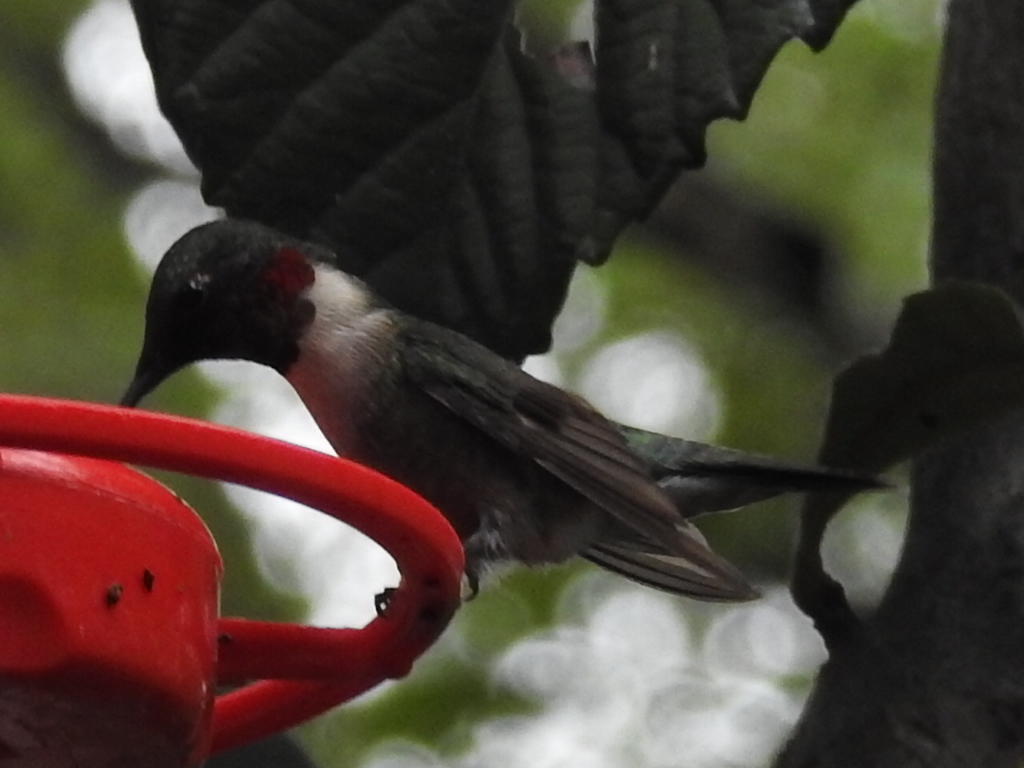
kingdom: Animalia
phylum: Chordata
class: Aves
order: Apodiformes
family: Trochilidae
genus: Archilochus
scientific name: Archilochus colubris
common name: Ruby-throated hummingbird
